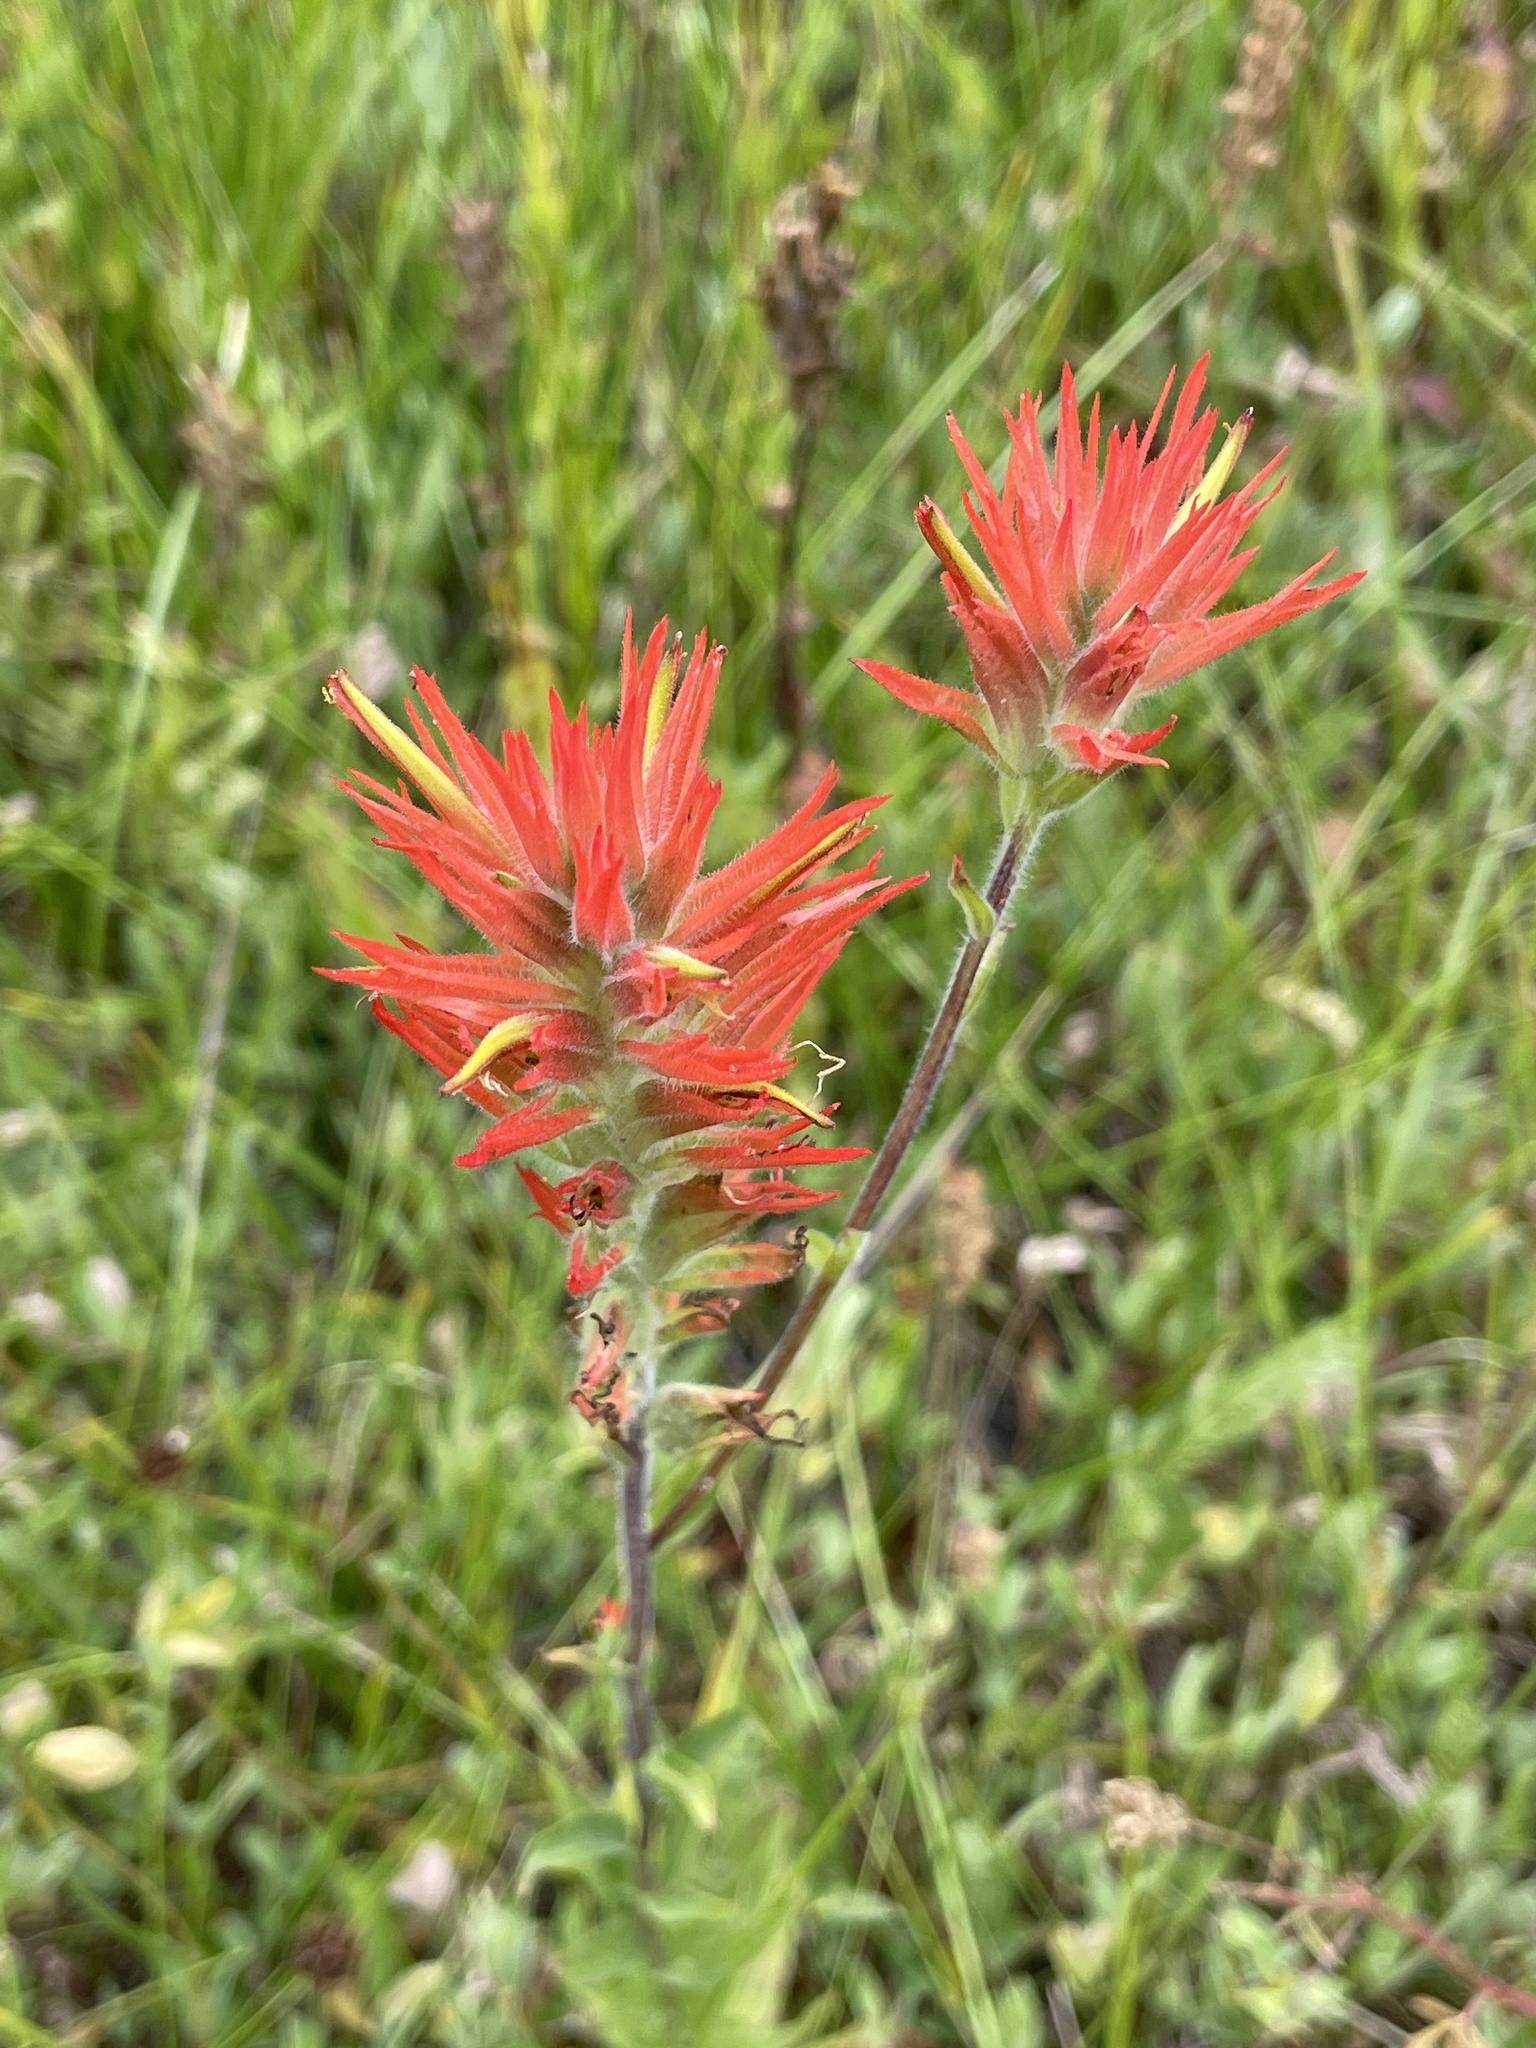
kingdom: Plantae
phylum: Tracheophyta
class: Magnoliopsida
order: Lamiales
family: Orobanchaceae
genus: Castilleja
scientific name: Castilleja miniata
